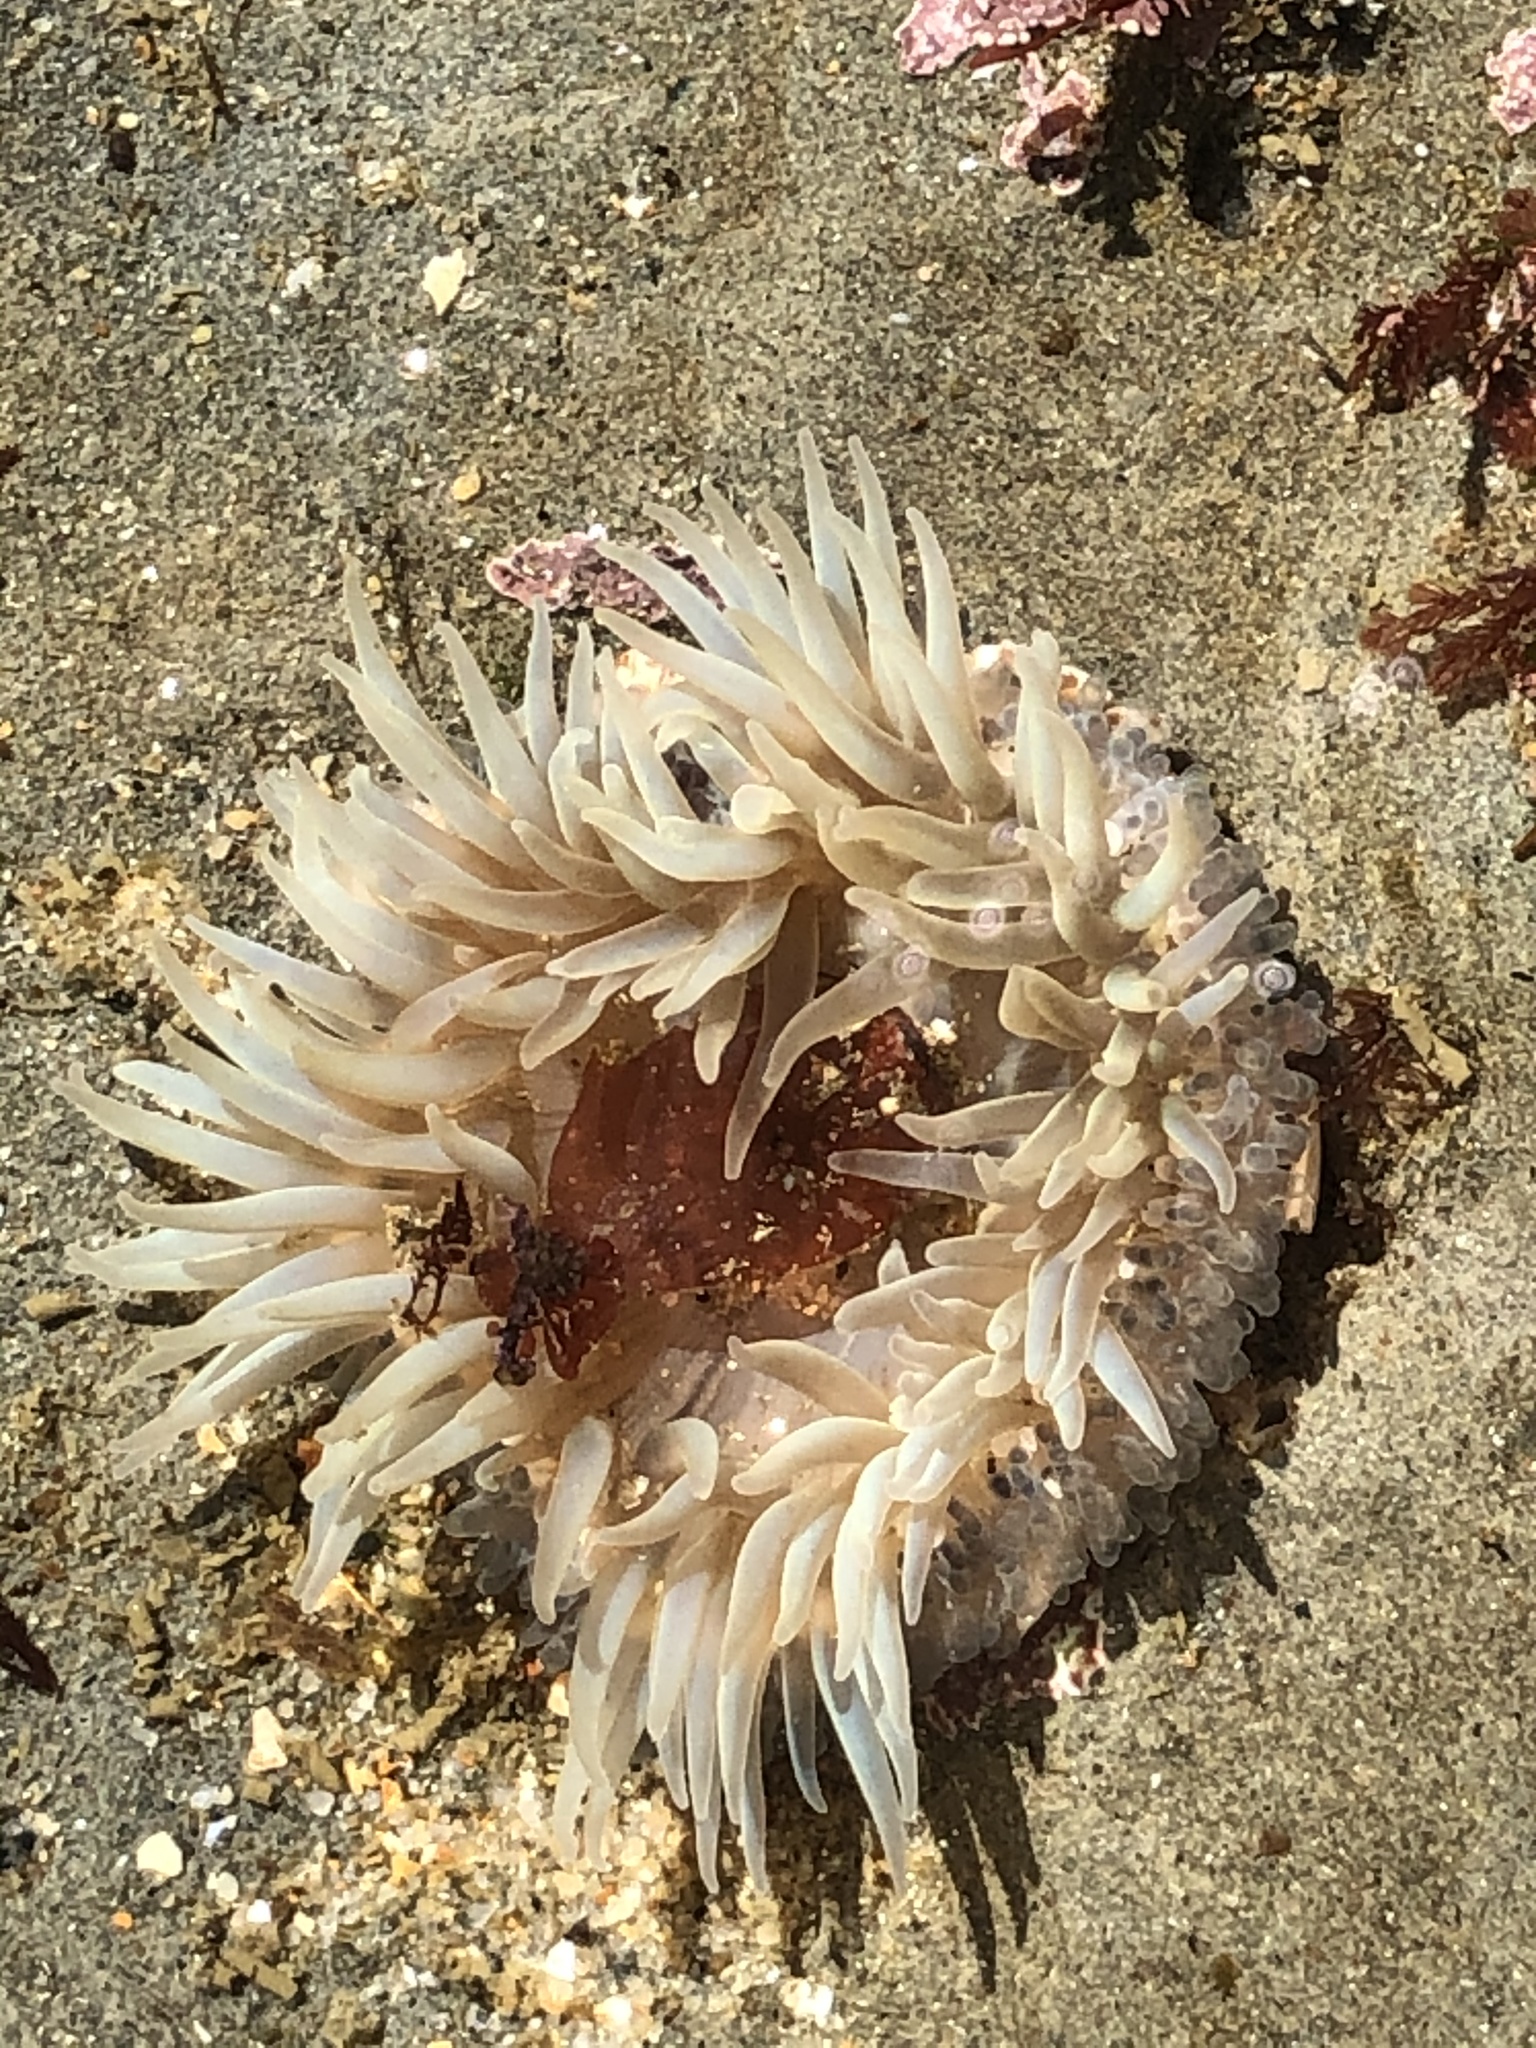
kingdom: Animalia
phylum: Cnidaria
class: Anthozoa
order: Actiniaria
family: Actiniidae
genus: Anthopleura
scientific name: Anthopleura sola
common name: Sun anemone
